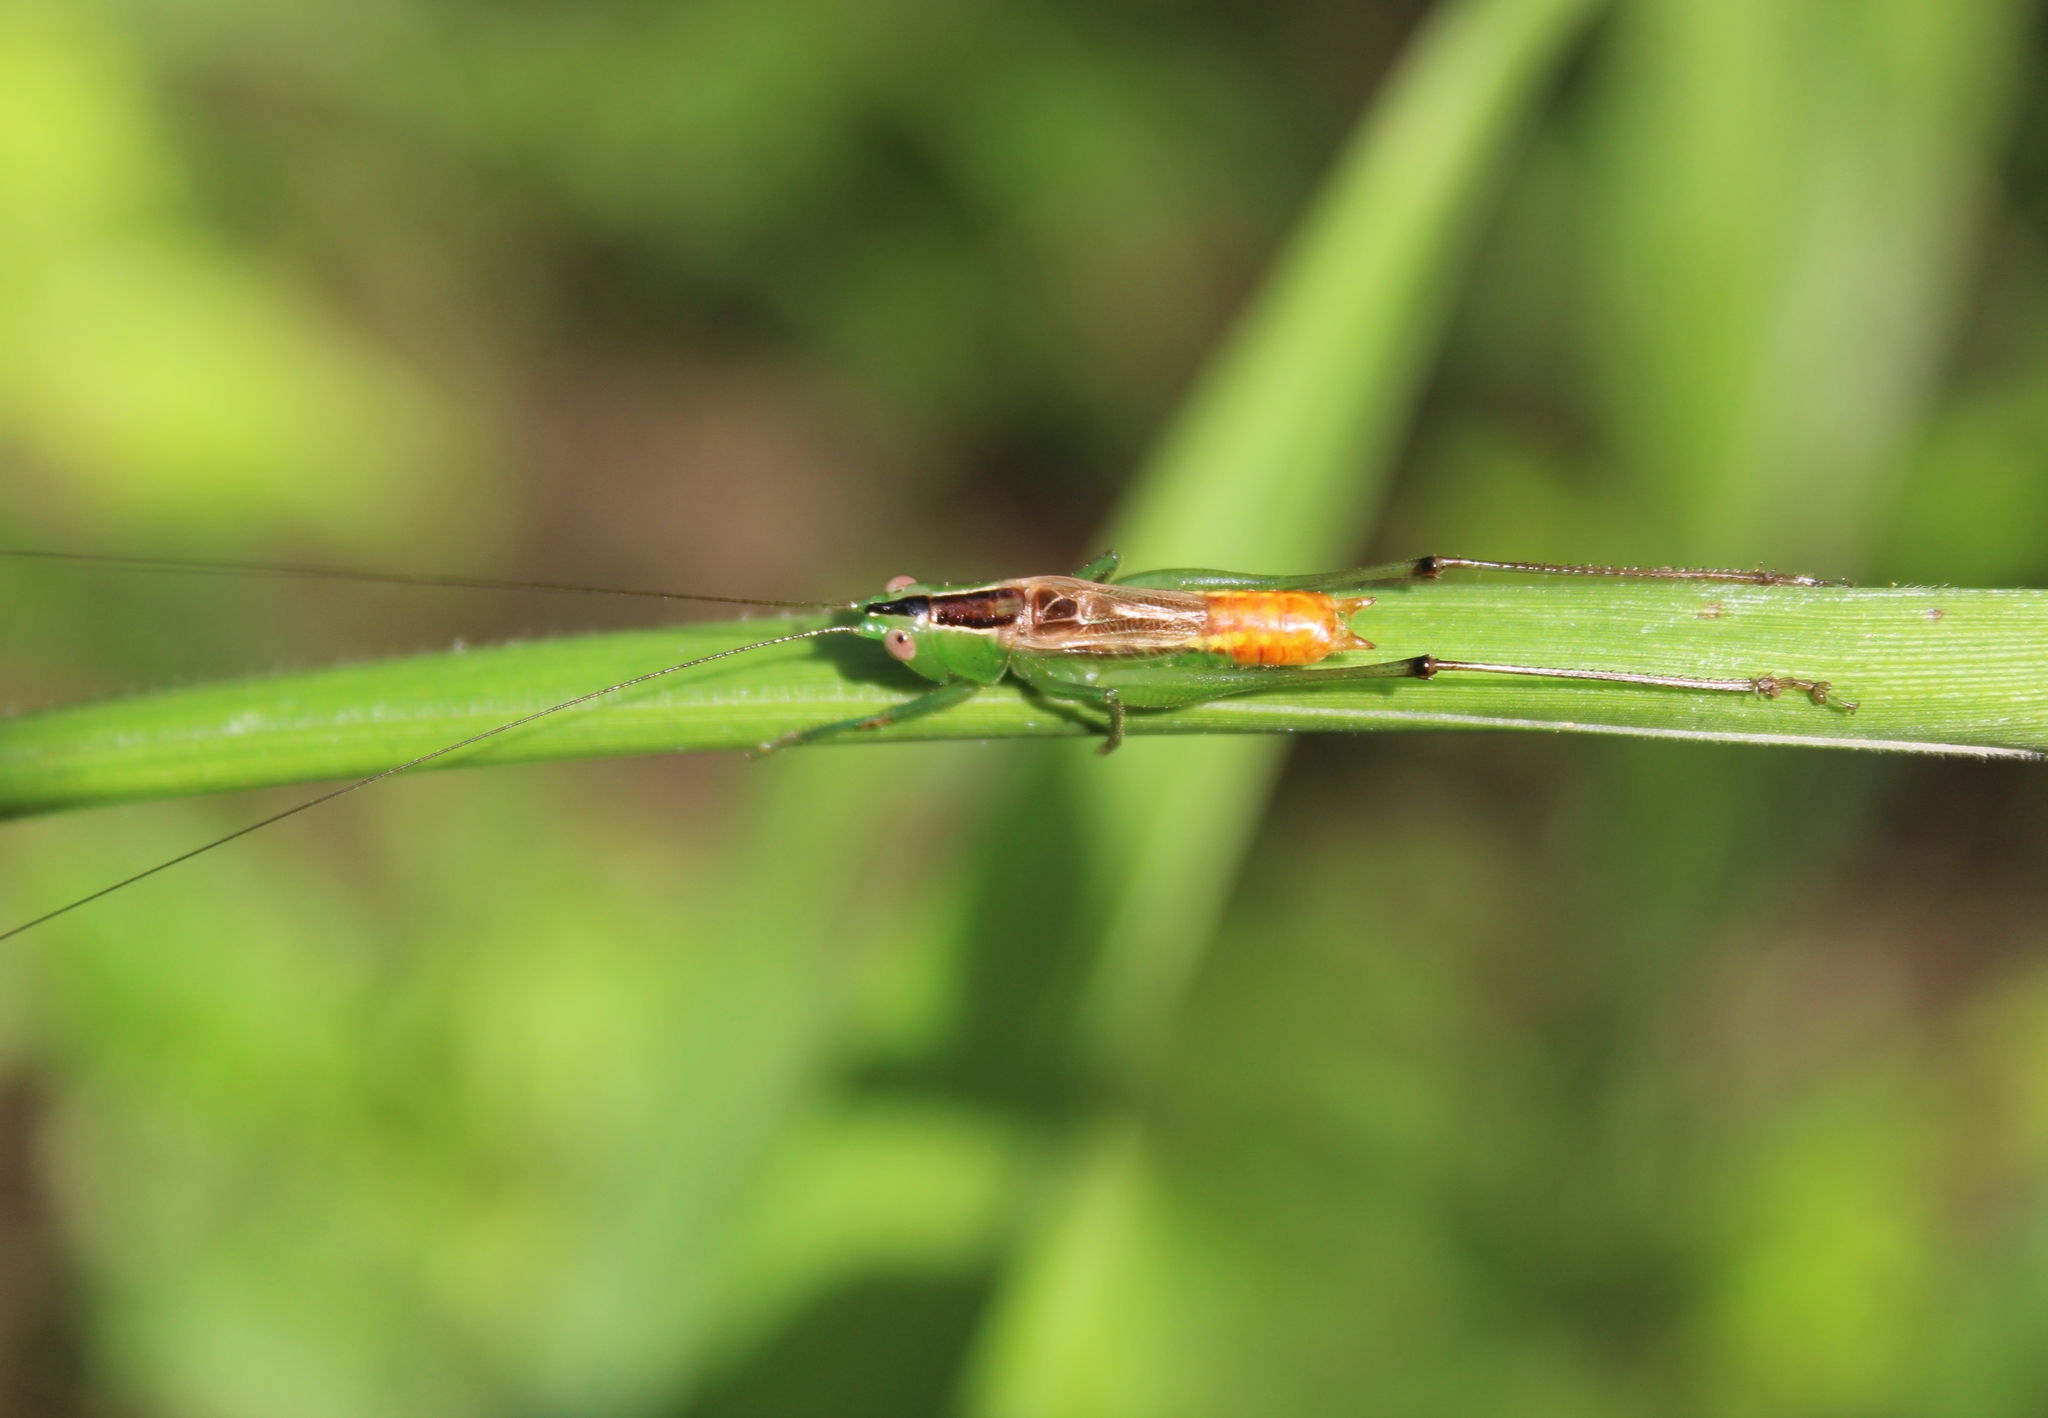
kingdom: Animalia
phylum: Arthropoda
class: Insecta
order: Orthoptera
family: Tettigoniidae
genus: Conocephalus
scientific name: Conocephalus ictus
